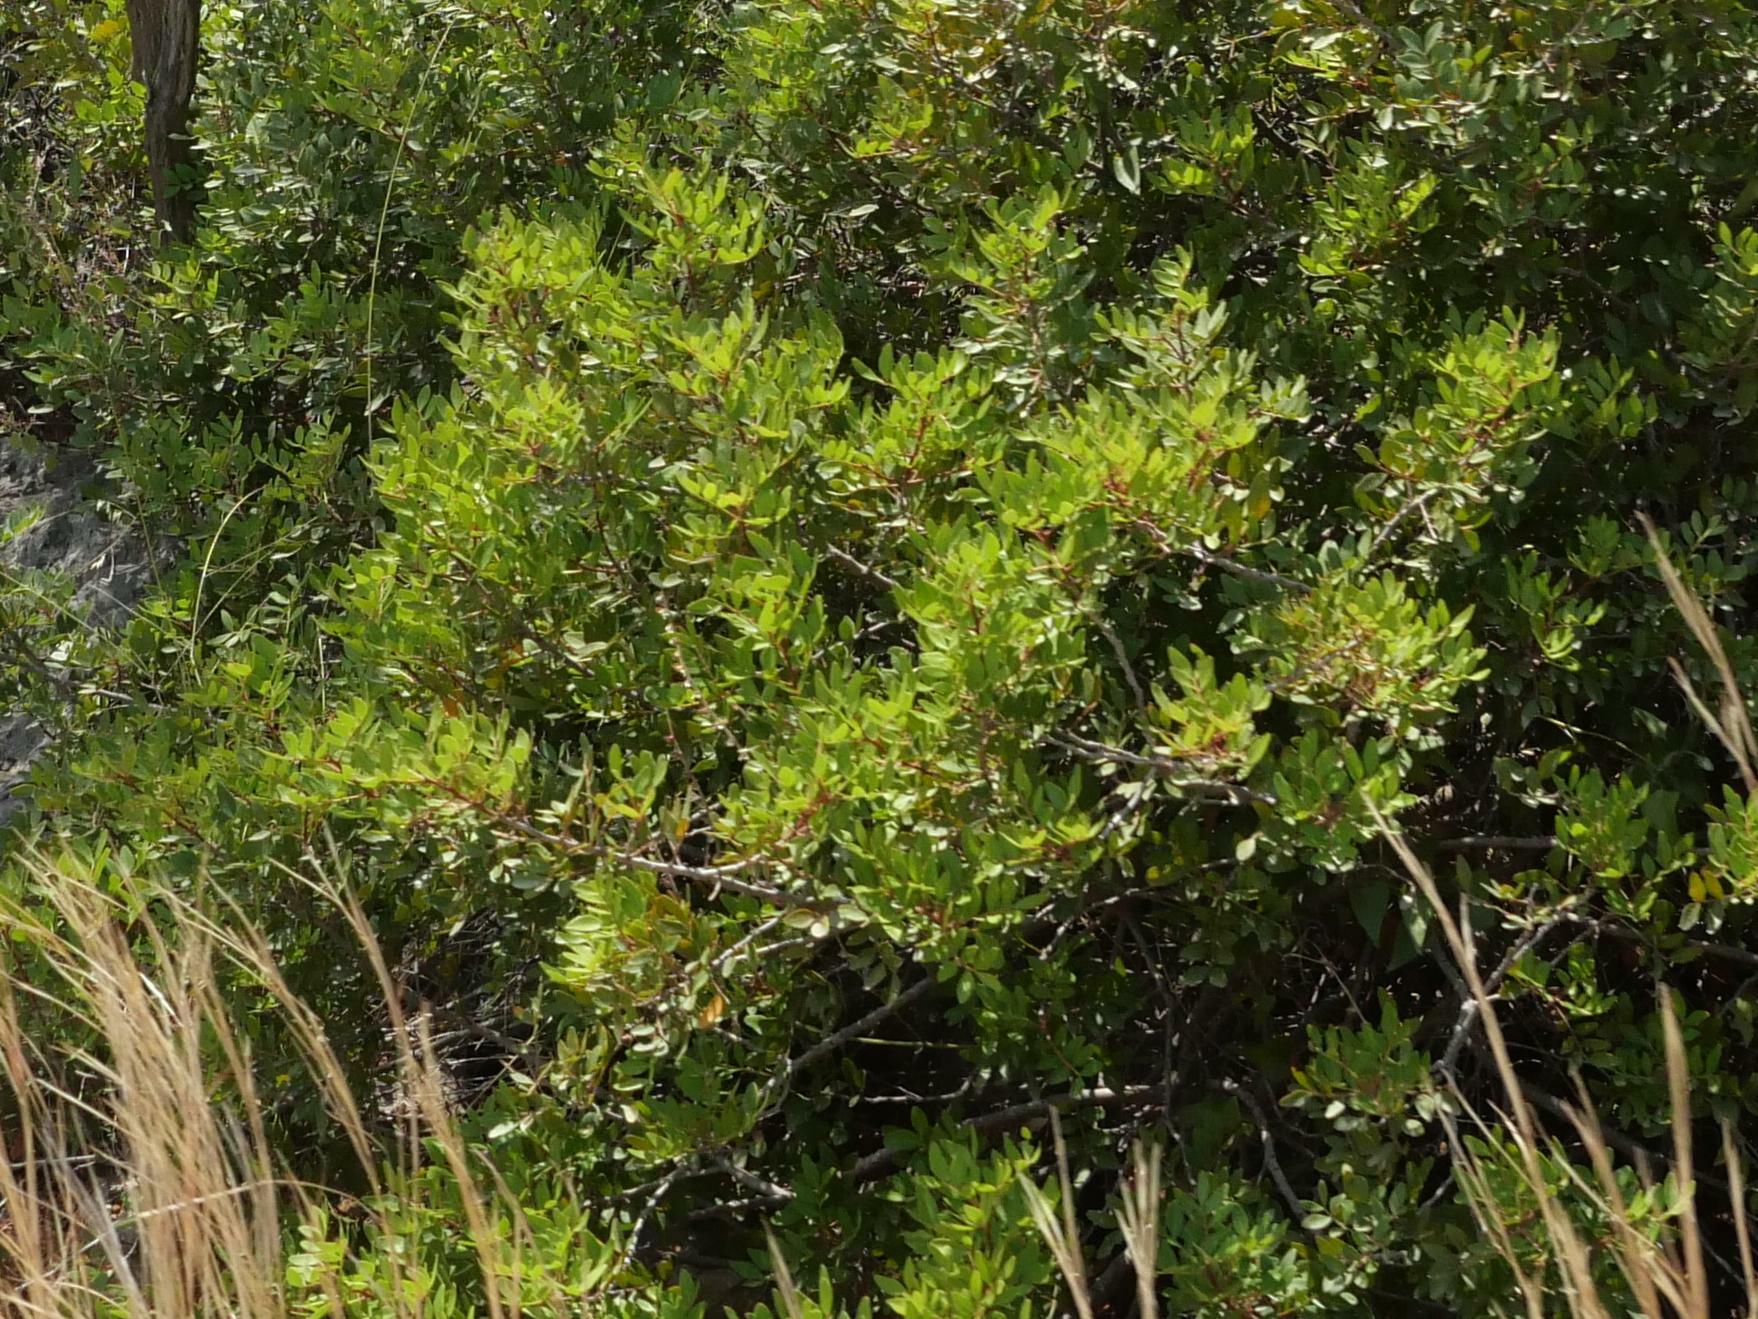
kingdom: Plantae
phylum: Tracheophyta
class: Magnoliopsida
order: Sapindales
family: Anacardiaceae
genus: Pistacia
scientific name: Pistacia lentiscus
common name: Lentisk
